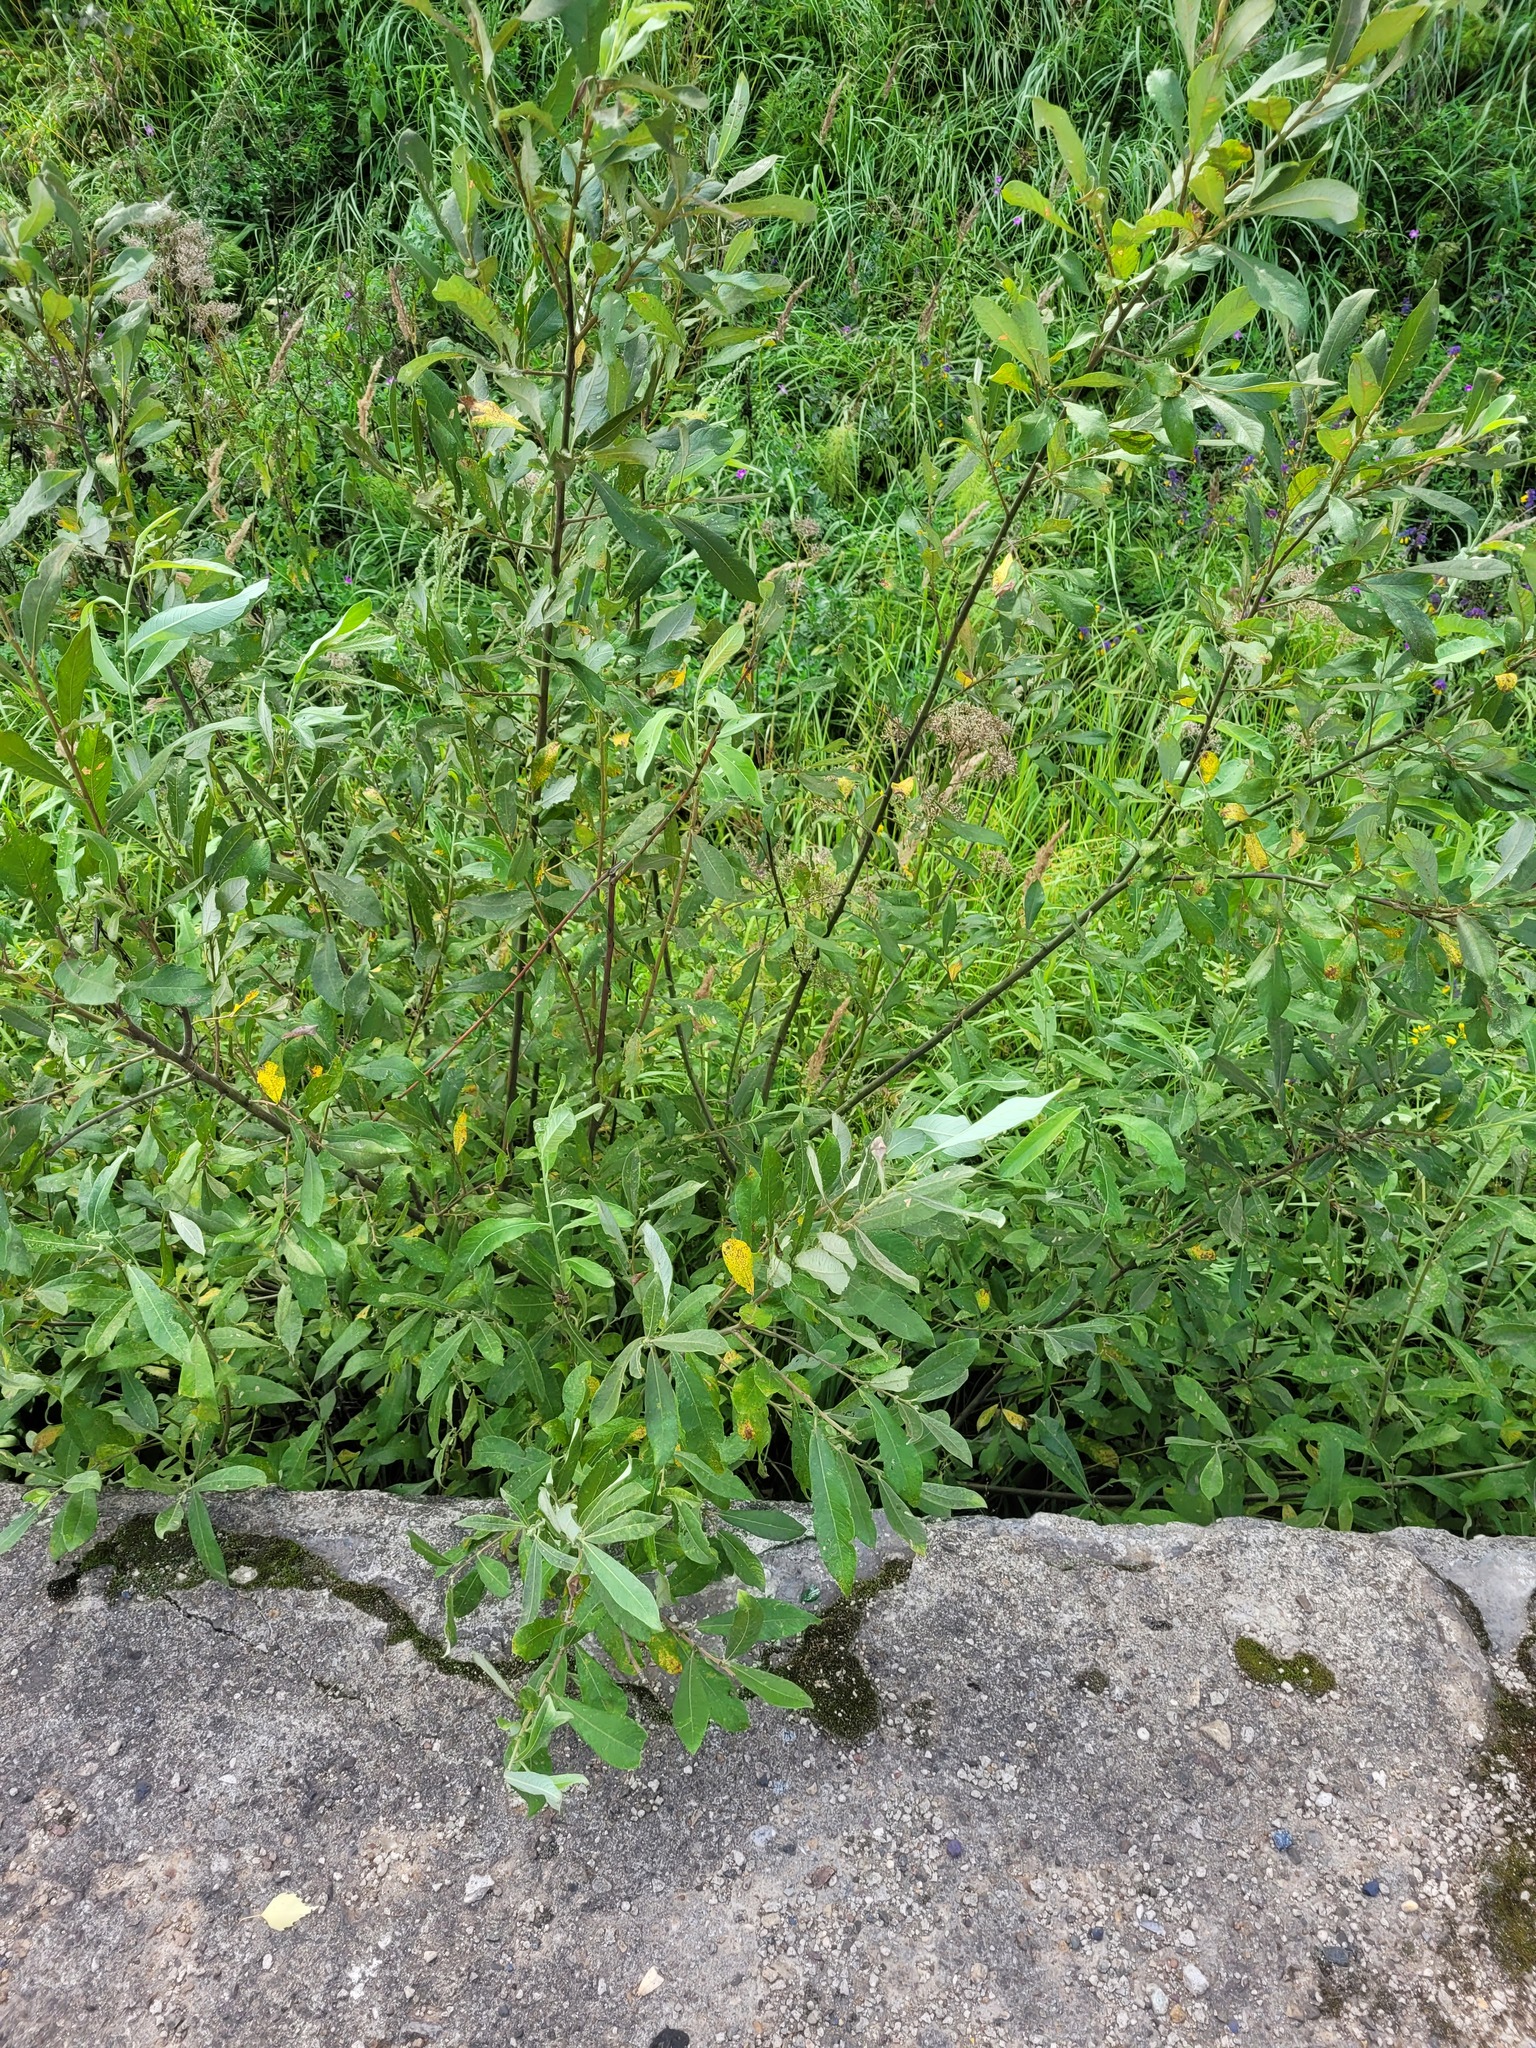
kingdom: Plantae
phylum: Tracheophyta
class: Magnoliopsida
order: Malpighiales
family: Salicaceae
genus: Salix
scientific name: Salix cinerea
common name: Common sallow
